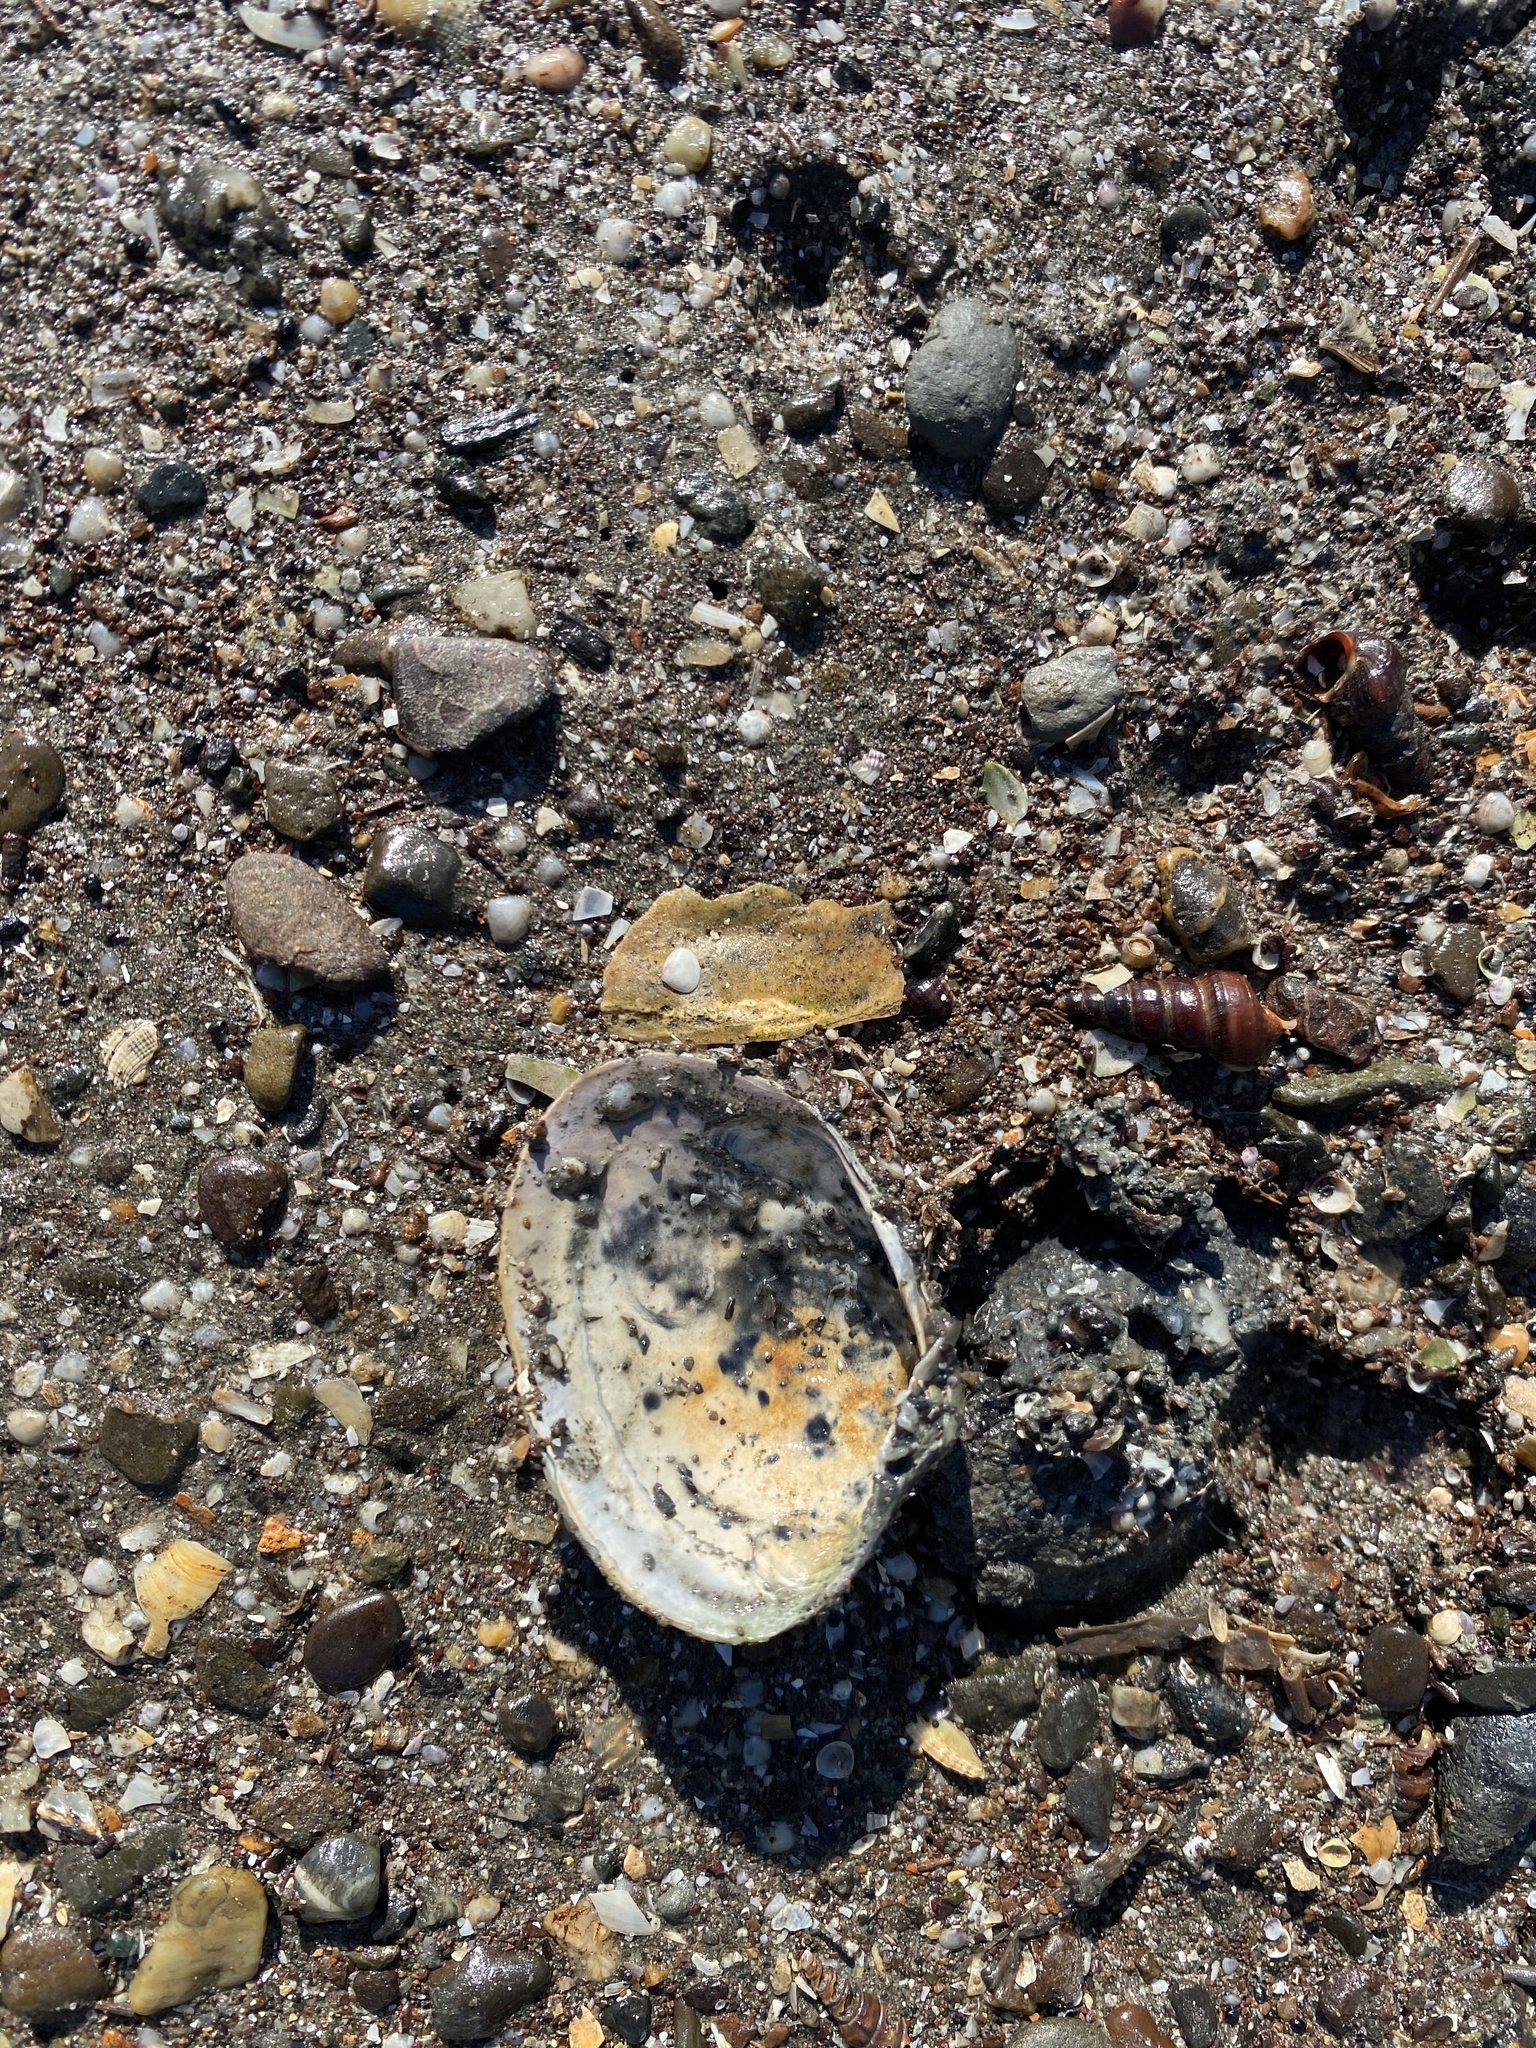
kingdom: Animalia
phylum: Mollusca
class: Bivalvia
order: Venerida
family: Veneridae
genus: Ruditapes
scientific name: Ruditapes philippinarum
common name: Manila clam
